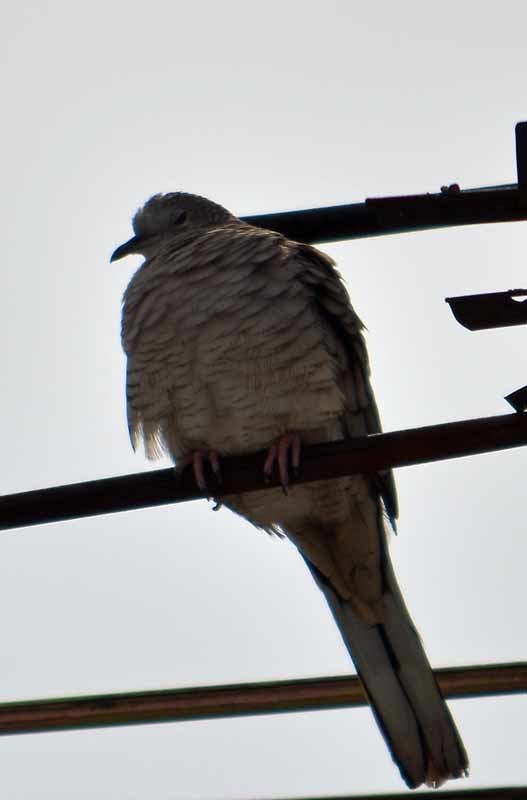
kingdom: Animalia
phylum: Chordata
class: Aves
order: Columbiformes
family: Columbidae
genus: Columbina
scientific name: Columbina inca
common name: Inca dove
